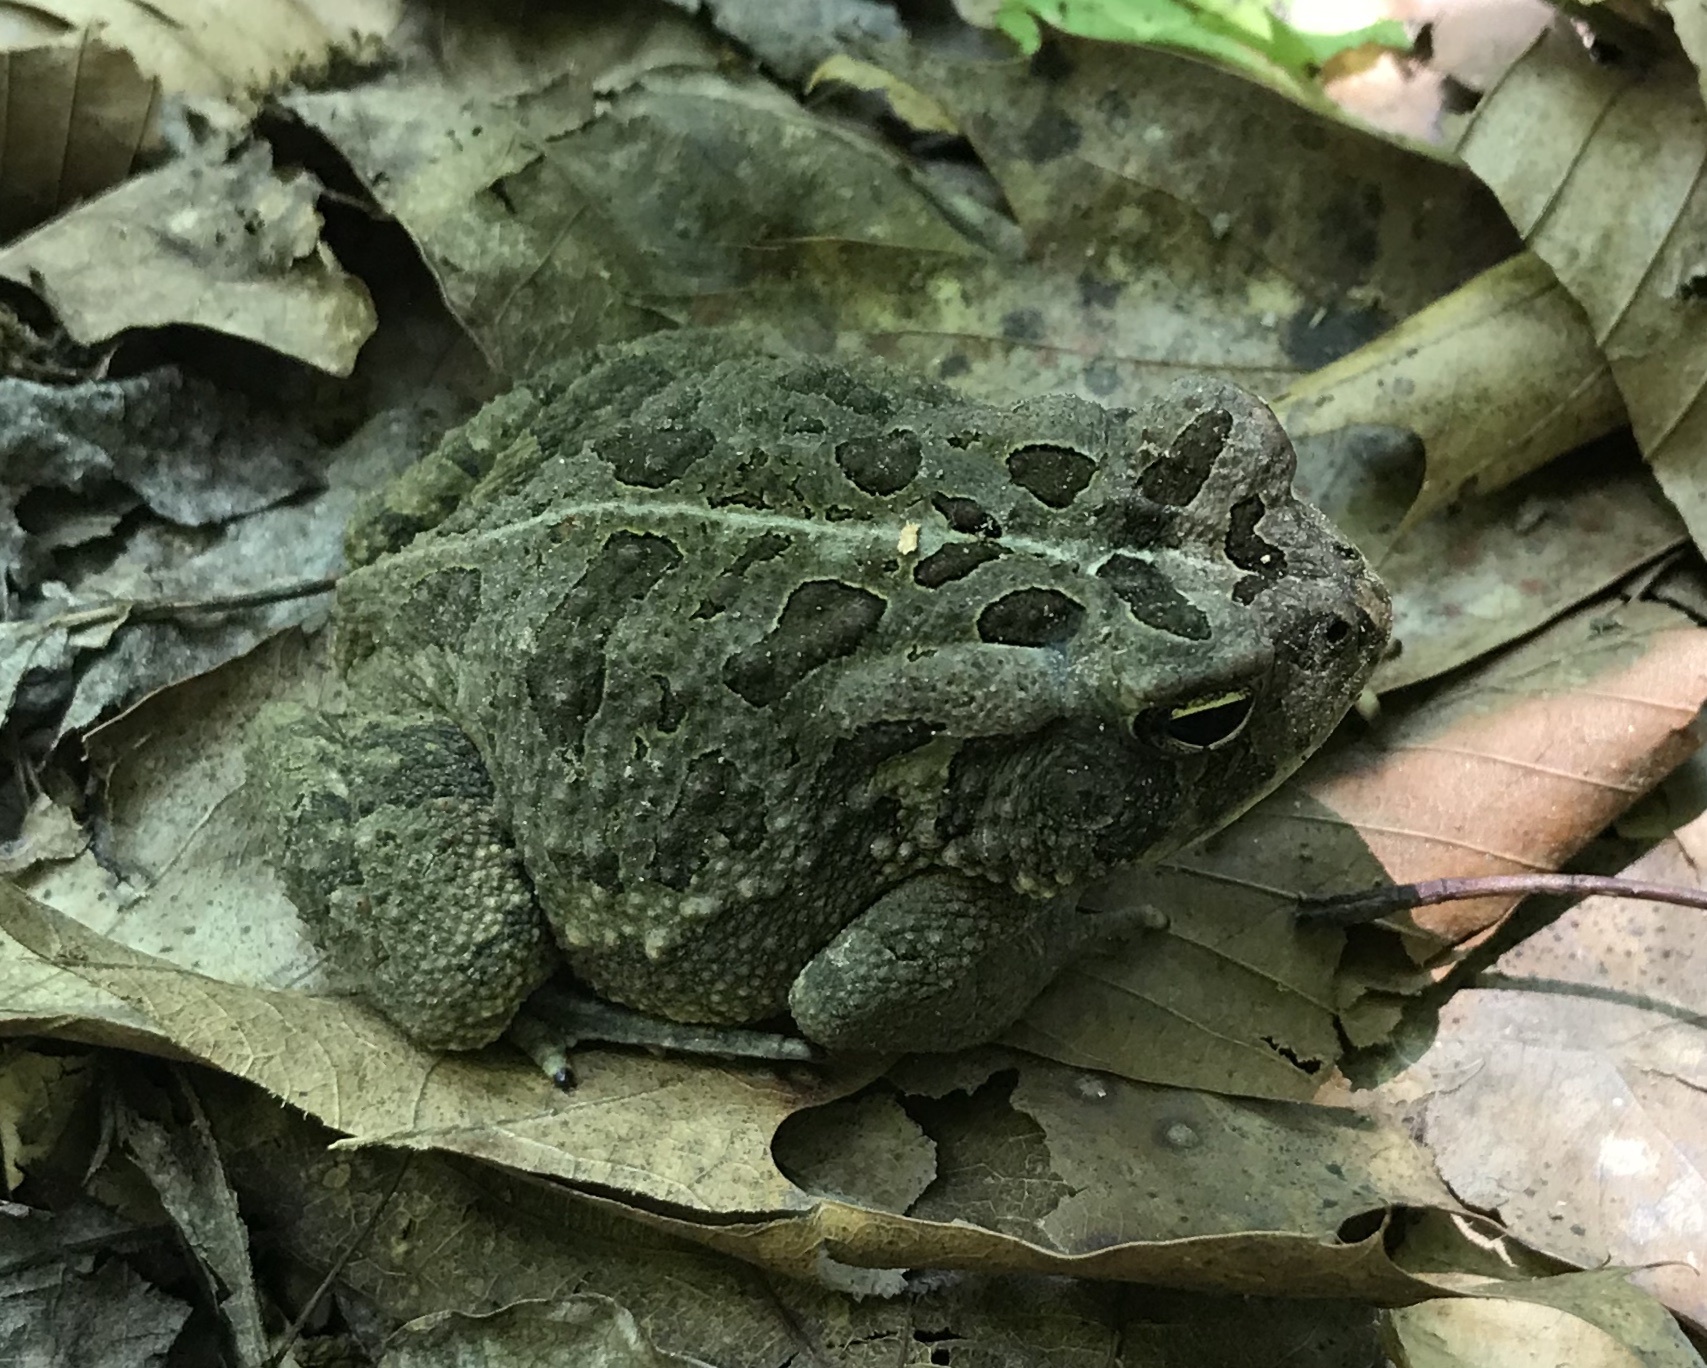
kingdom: Animalia
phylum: Chordata
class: Amphibia
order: Anura
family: Bufonidae
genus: Anaxyrus
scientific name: Anaxyrus fowleri
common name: Fowler's toad
